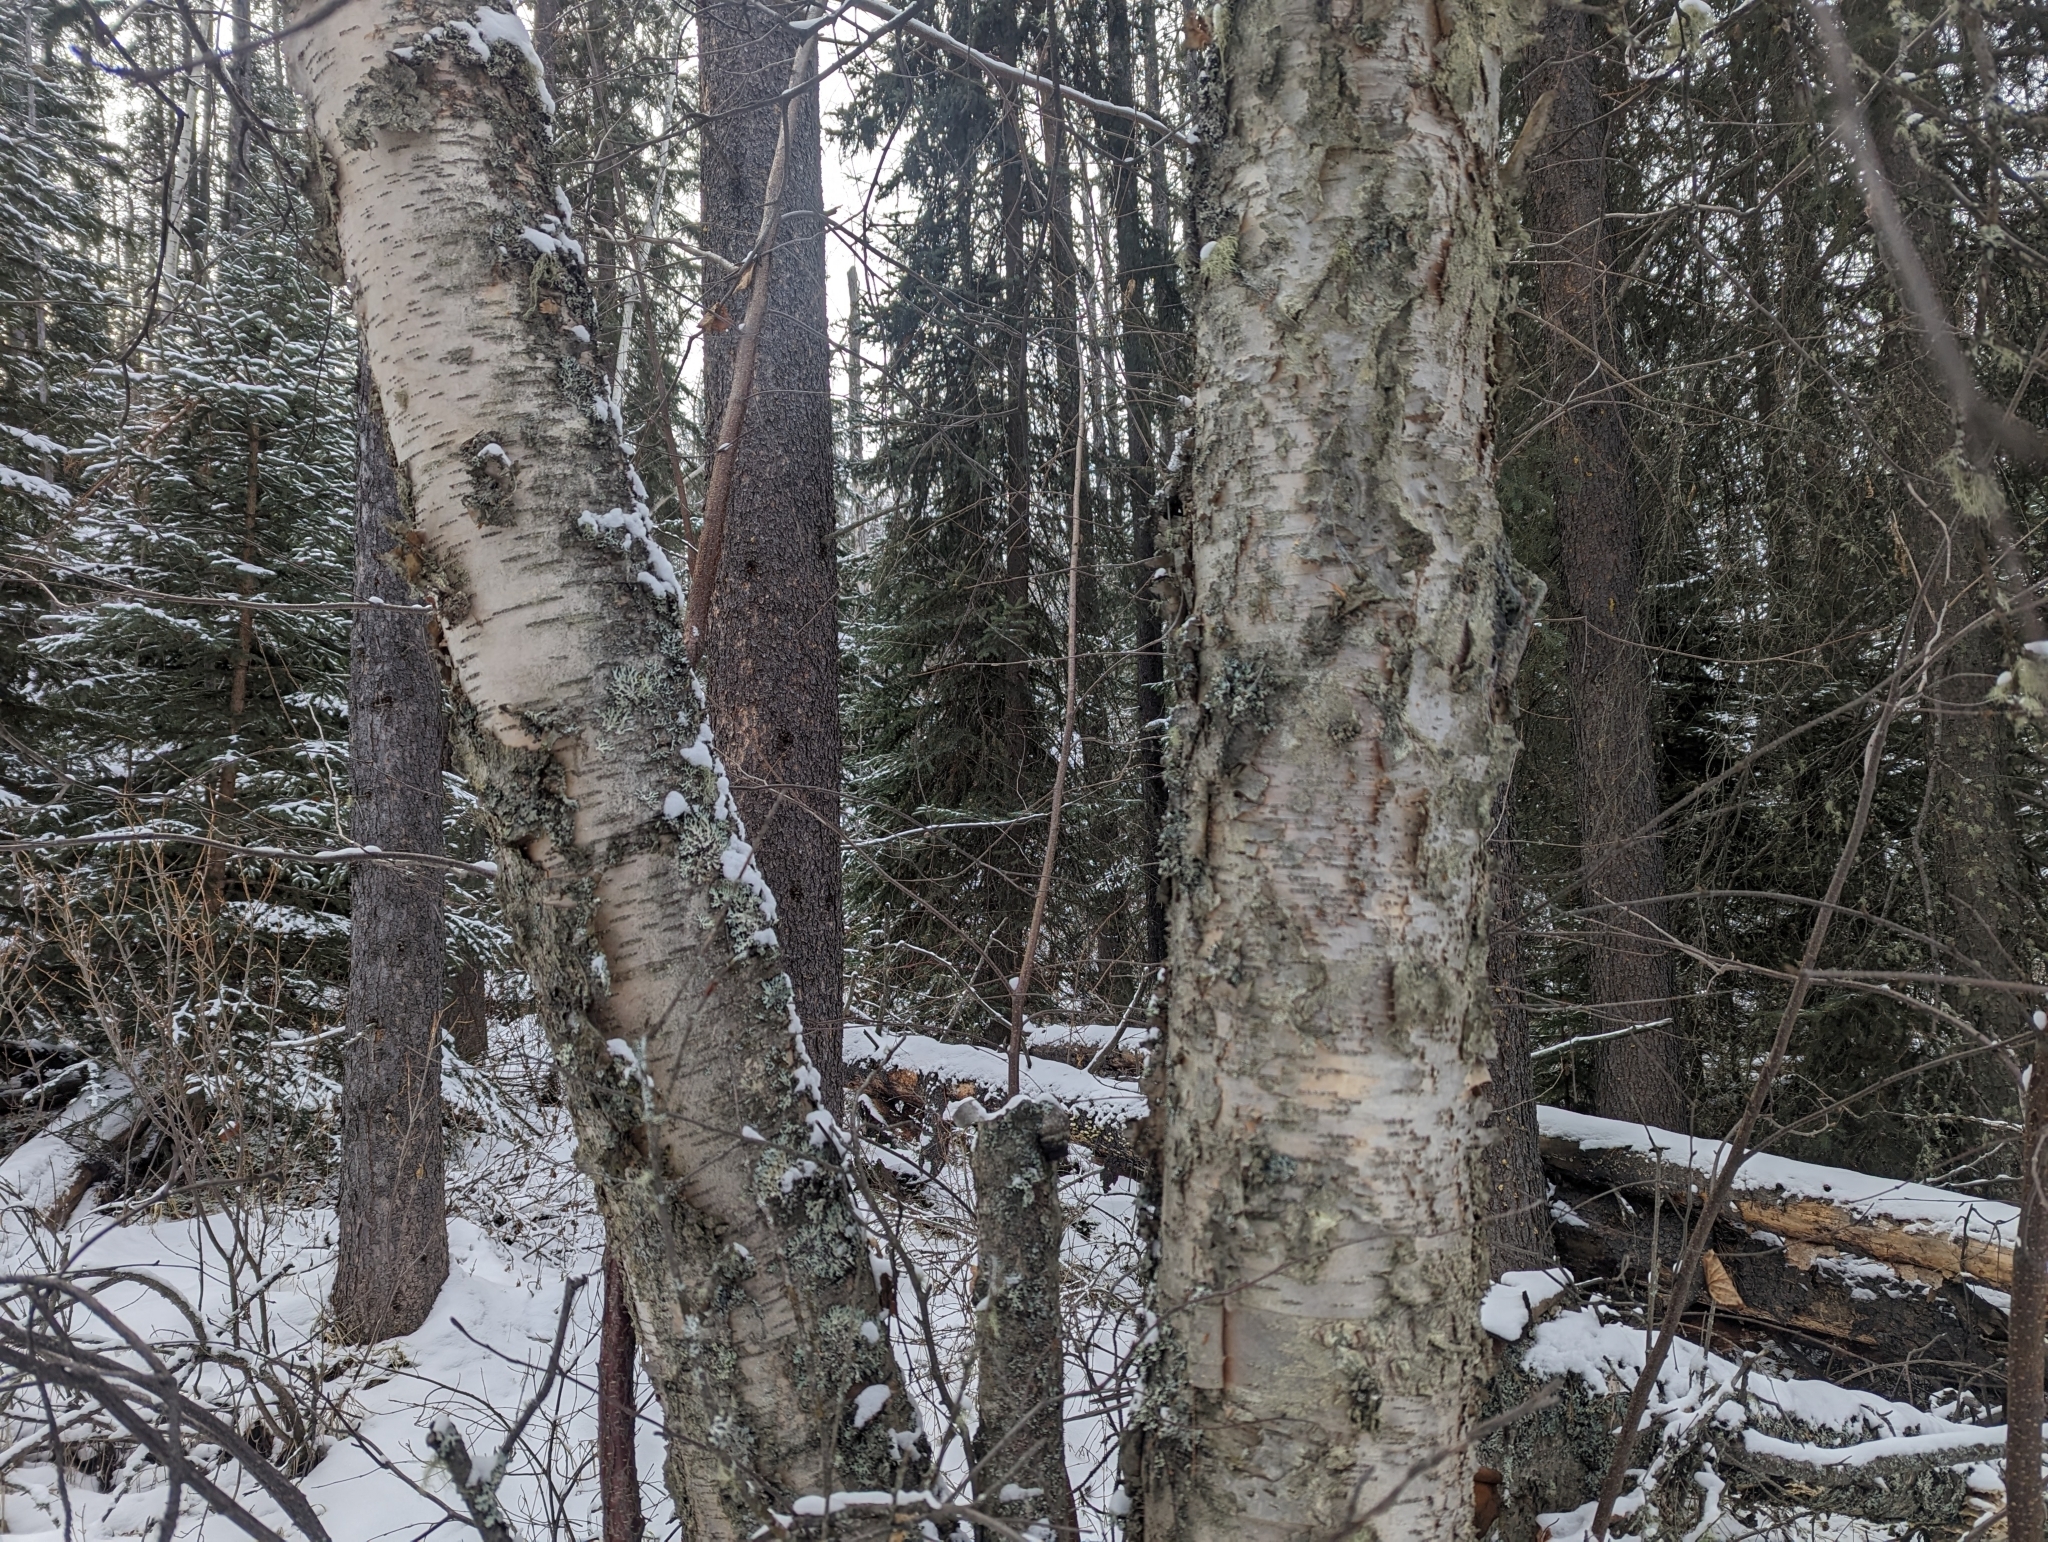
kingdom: Plantae
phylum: Tracheophyta
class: Magnoliopsida
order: Fagales
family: Betulaceae
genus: Betula
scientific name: Betula papyrifera
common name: Paper birch
